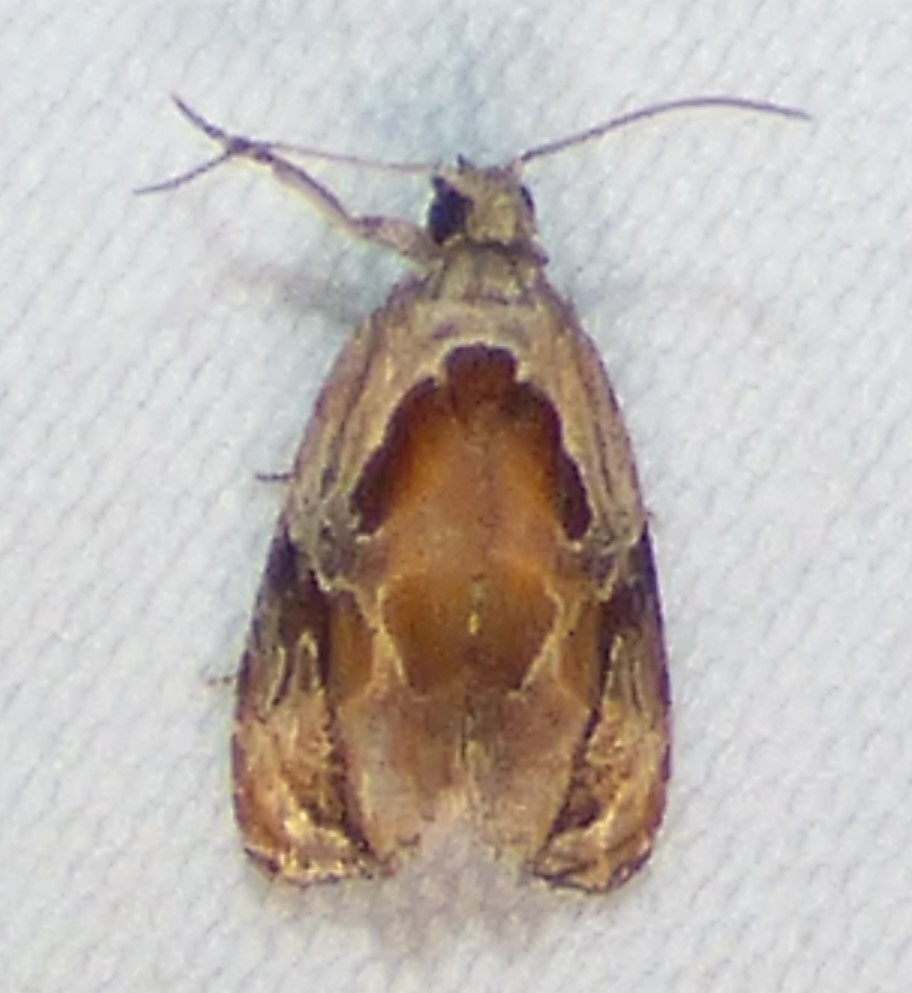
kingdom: Animalia
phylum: Arthropoda
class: Insecta
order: Lepidoptera
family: Tortricidae
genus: Zomaria
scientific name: Zomaria interruptolineana
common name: Broken-lined zomaria moth
